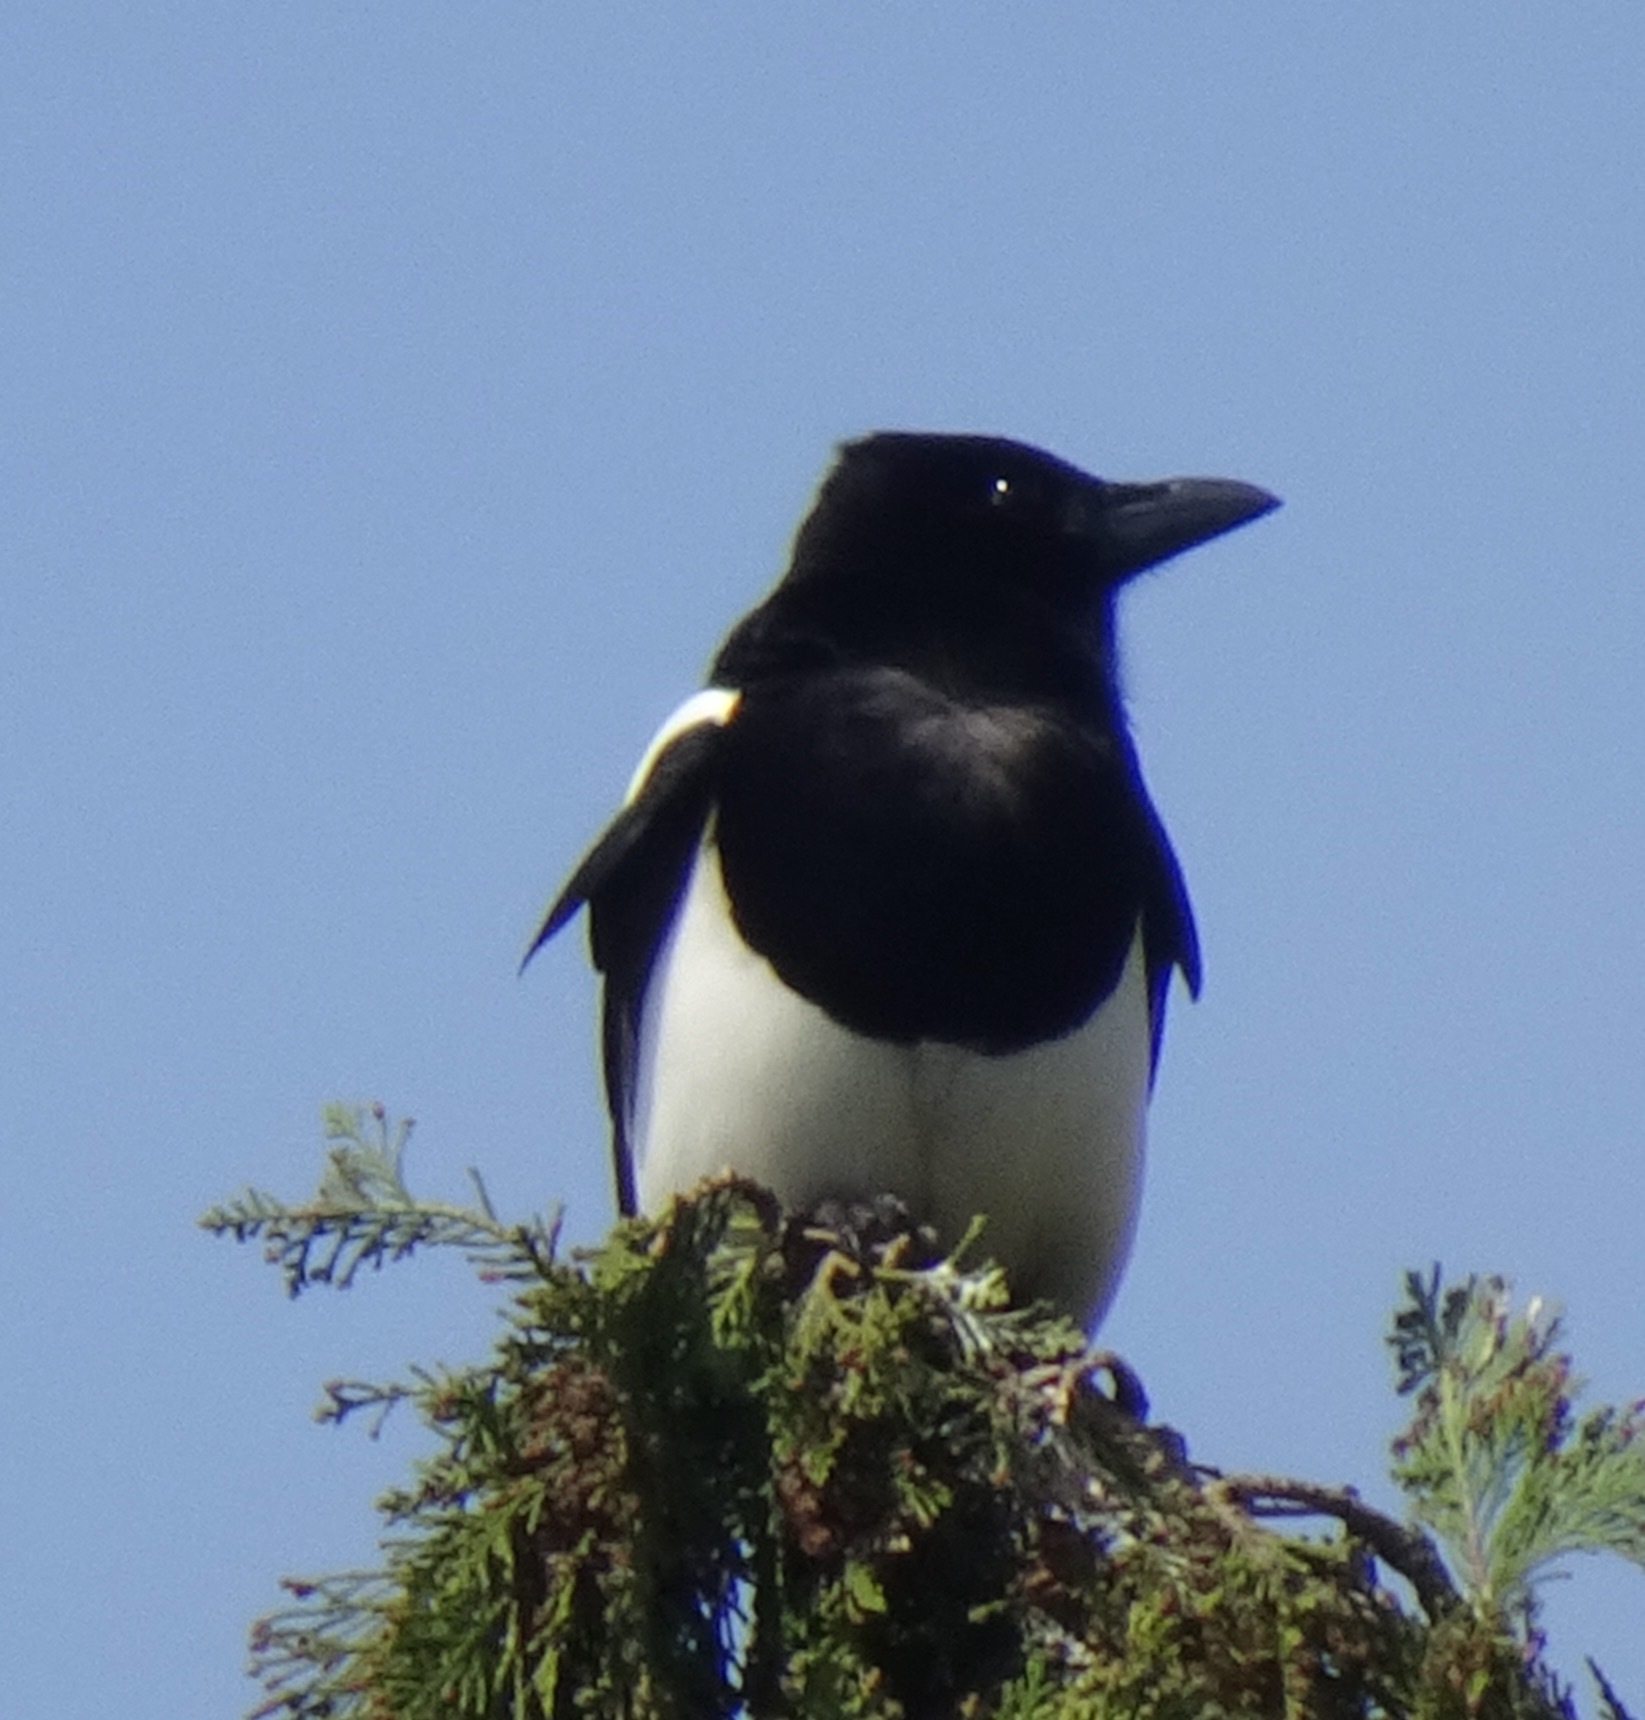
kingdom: Animalia
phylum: Chordata
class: Aves
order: Passeriformes
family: Corvidae
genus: Pica
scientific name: Pica pica
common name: Eurasian magpie
